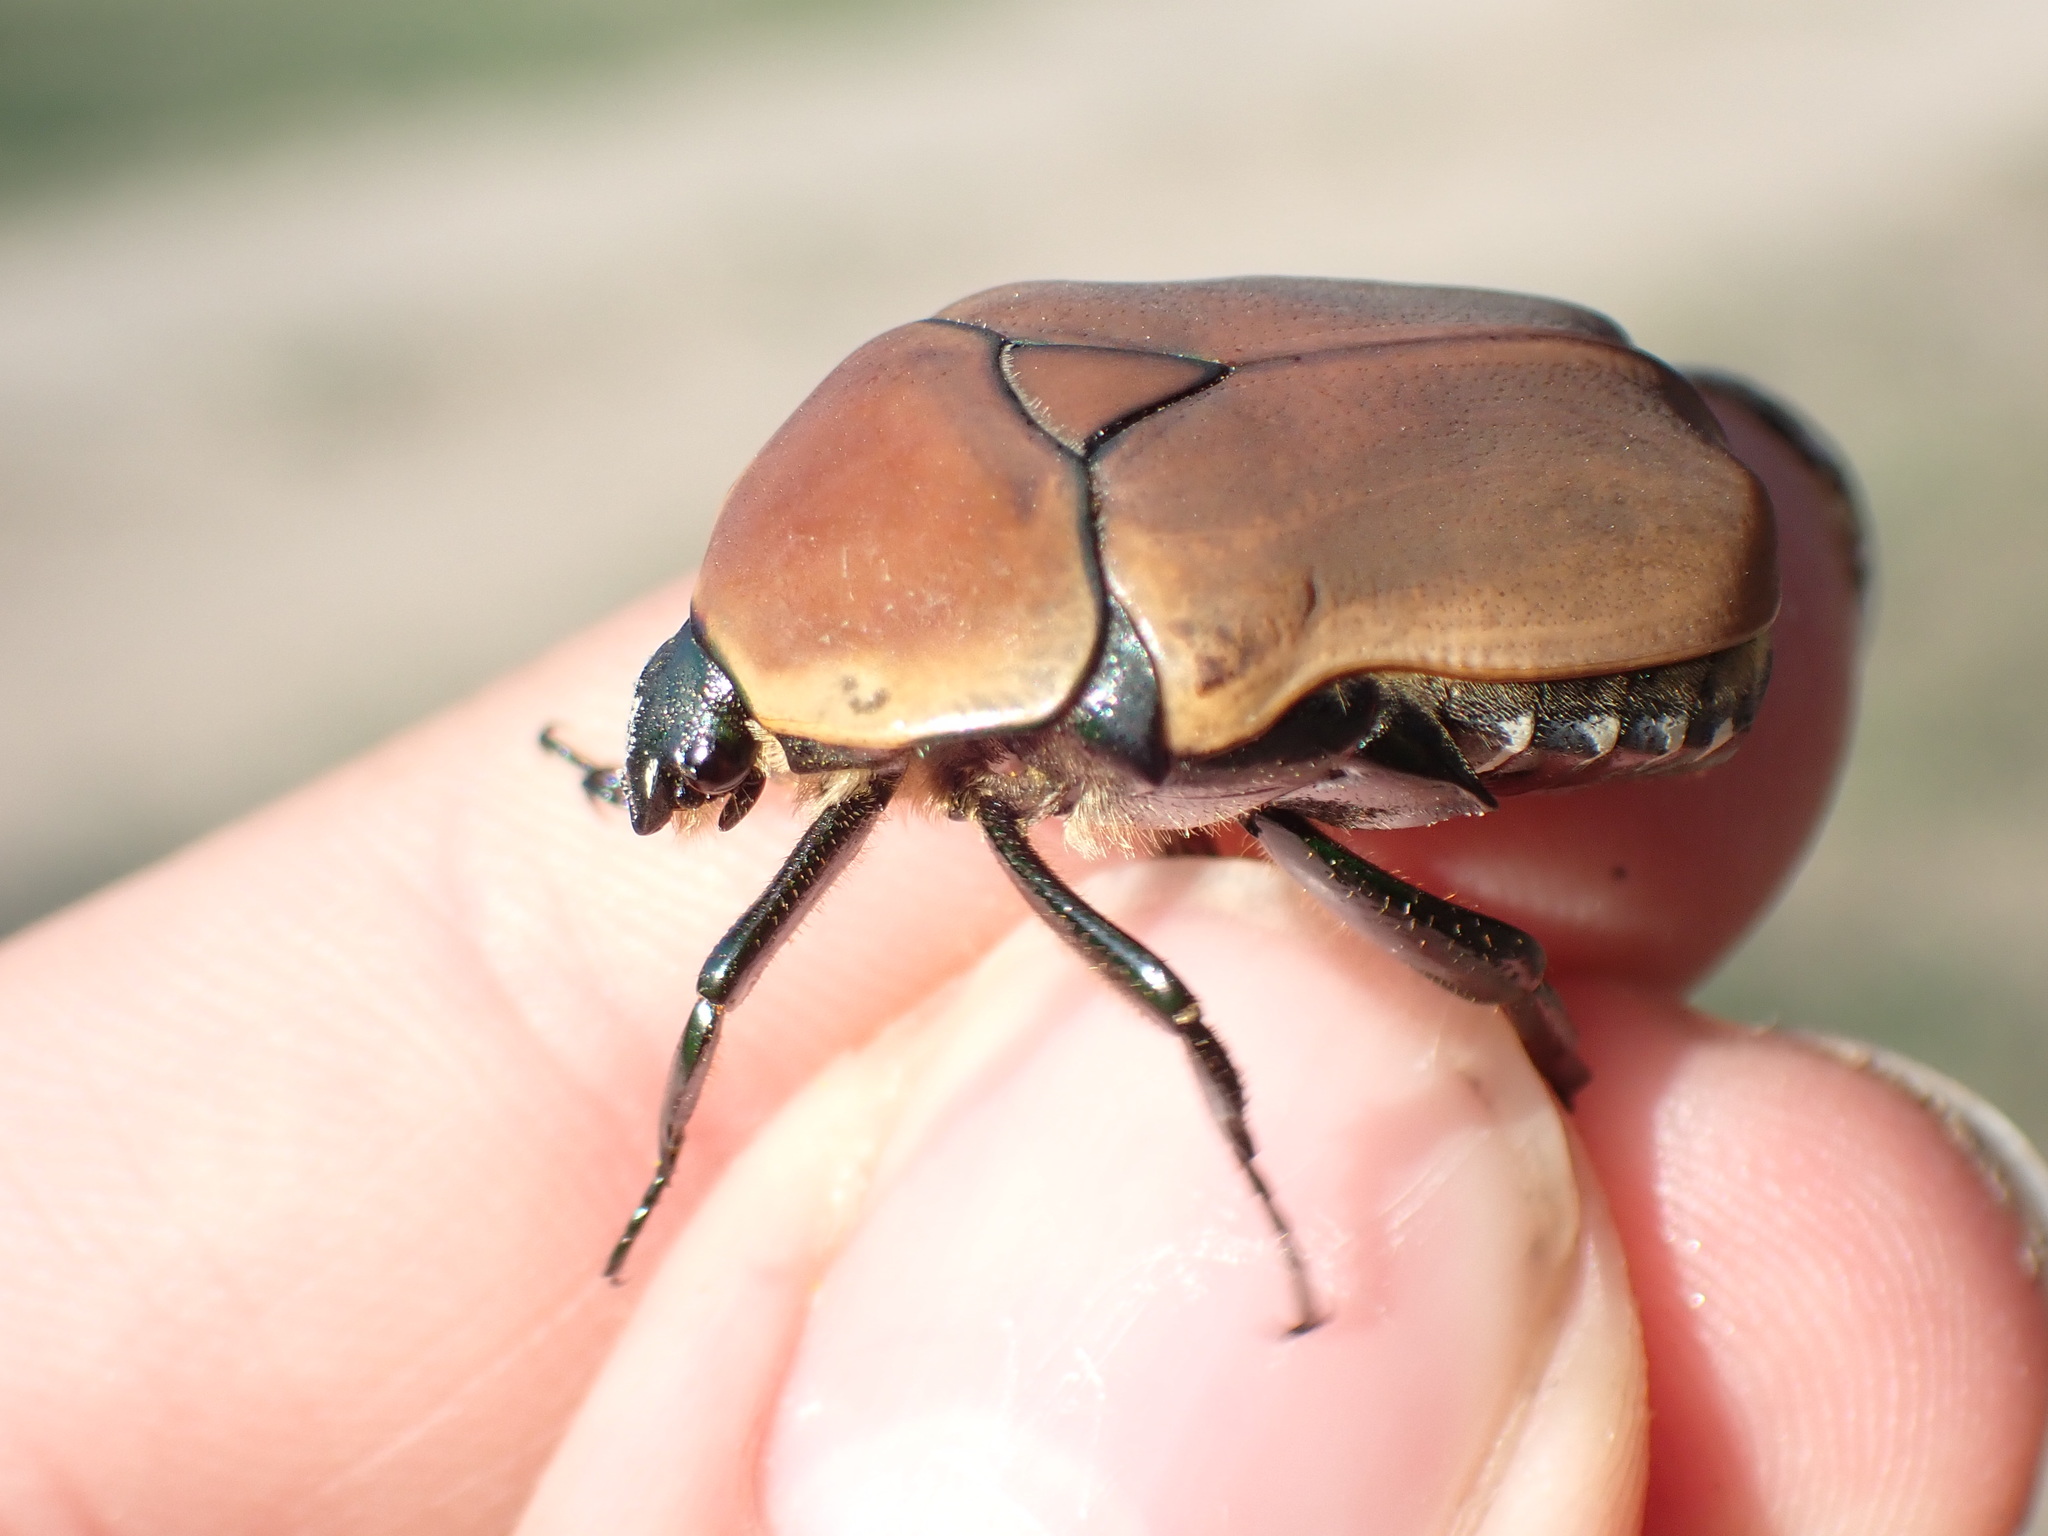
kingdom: Animalia
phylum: Arthropoda
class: Insecta
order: Coleoptera
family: Scarabaeidae
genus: Dischista
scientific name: Dischista rufa
